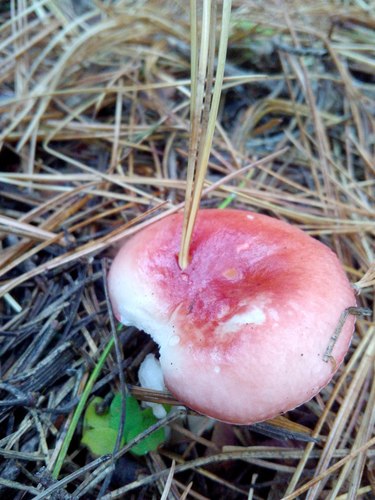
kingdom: Fungi
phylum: Basidiomycota
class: Agaricomycetes
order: Russulales
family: Russulaceae
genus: Russula
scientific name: Russula sanguinea
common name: Bloody brittlegill
